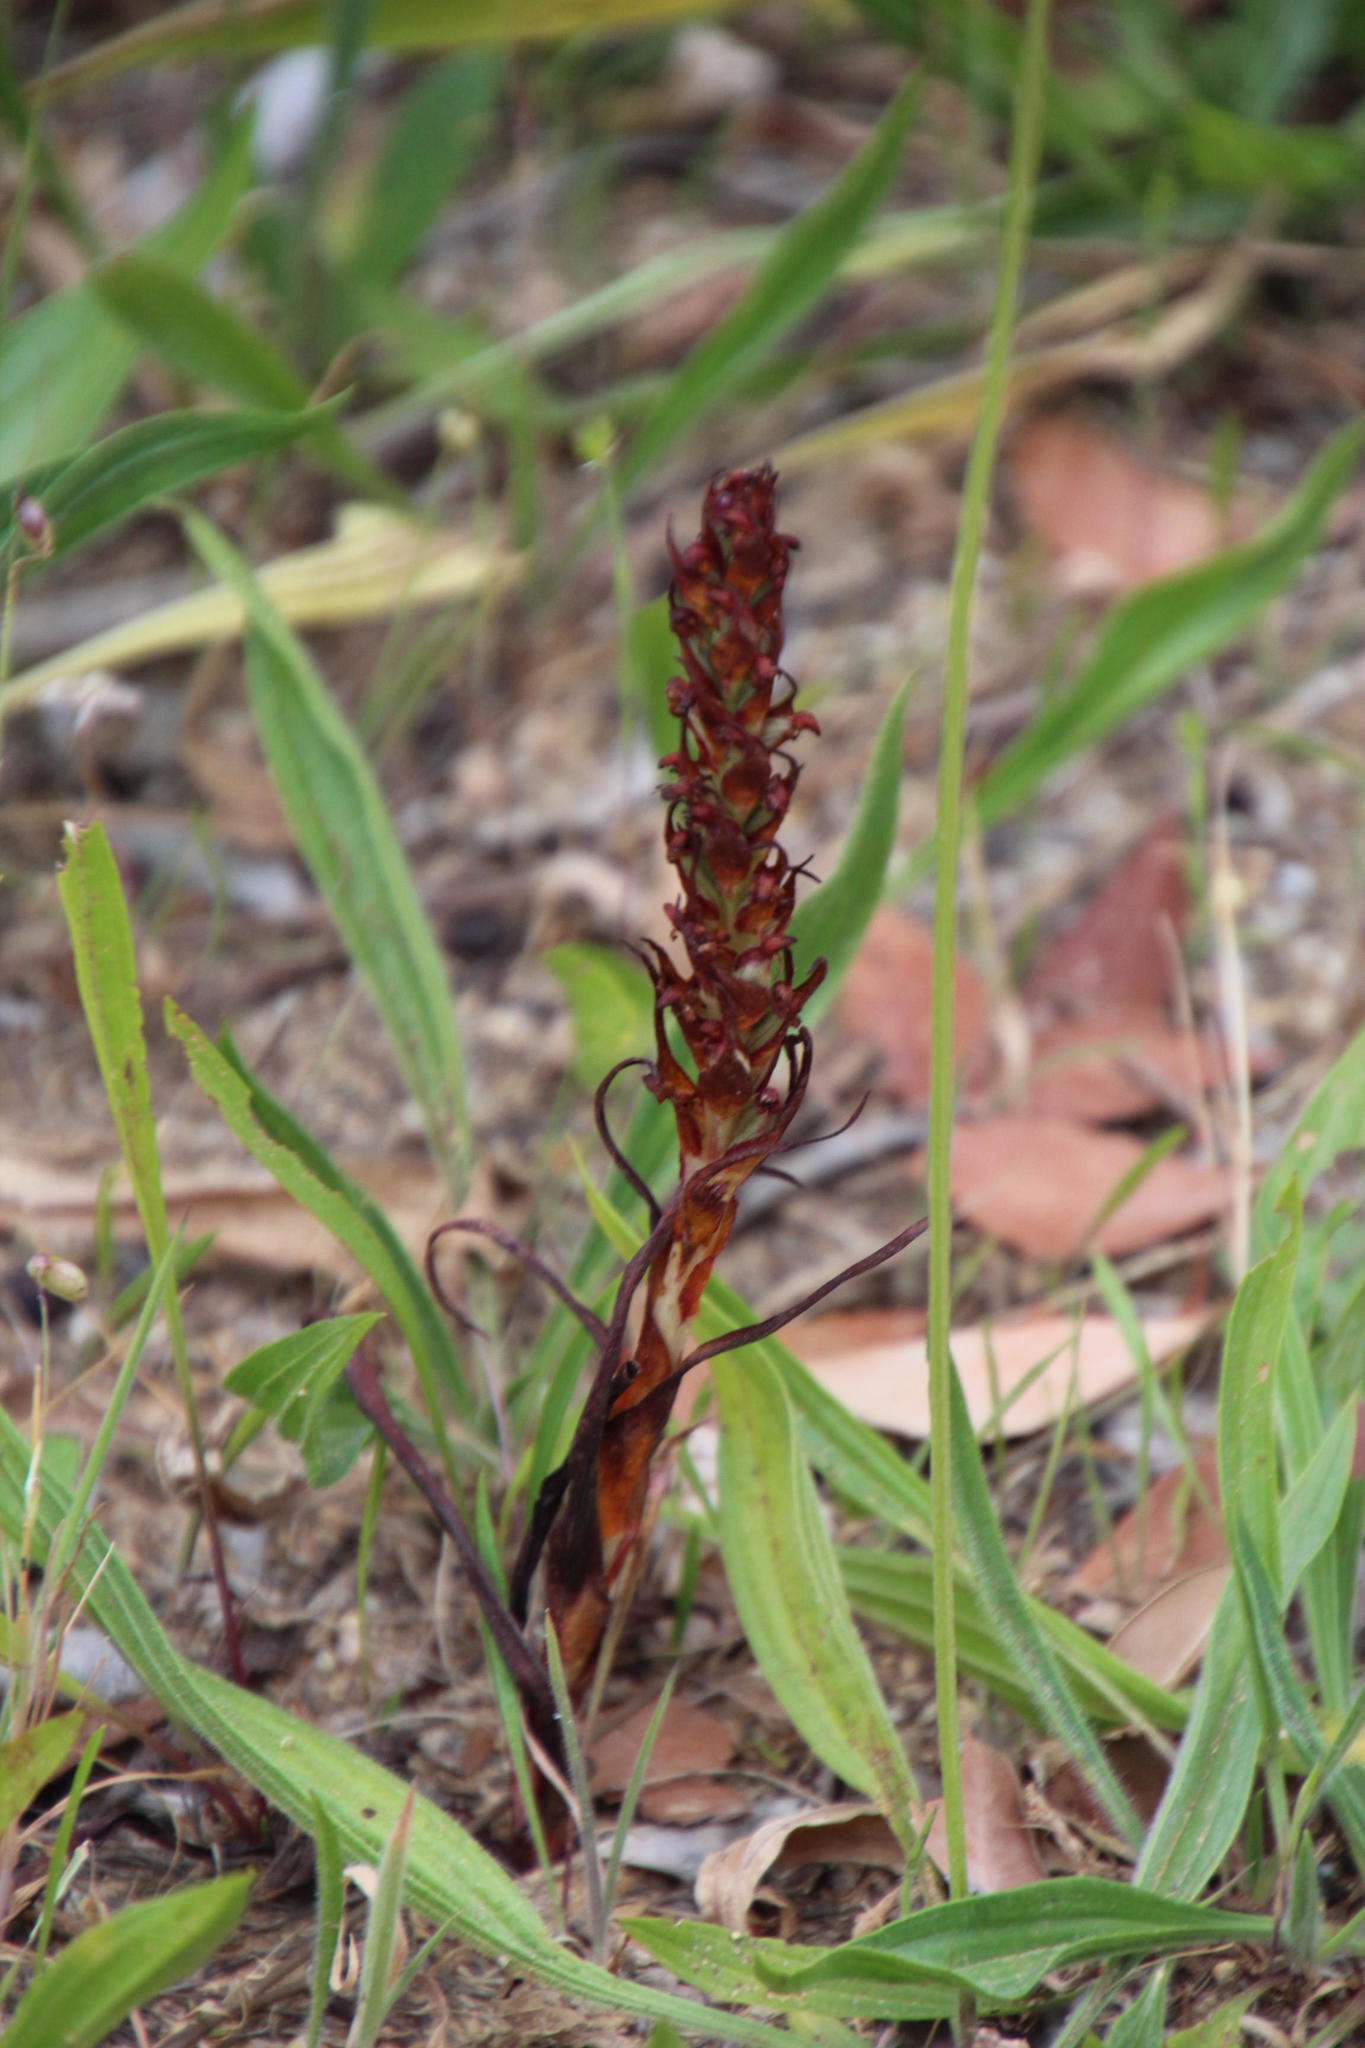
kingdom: Plantae
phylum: Tracheophyta
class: Liliopsida
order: Asparagales
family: Orchidaceae
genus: Disa
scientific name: Disa bracteata
